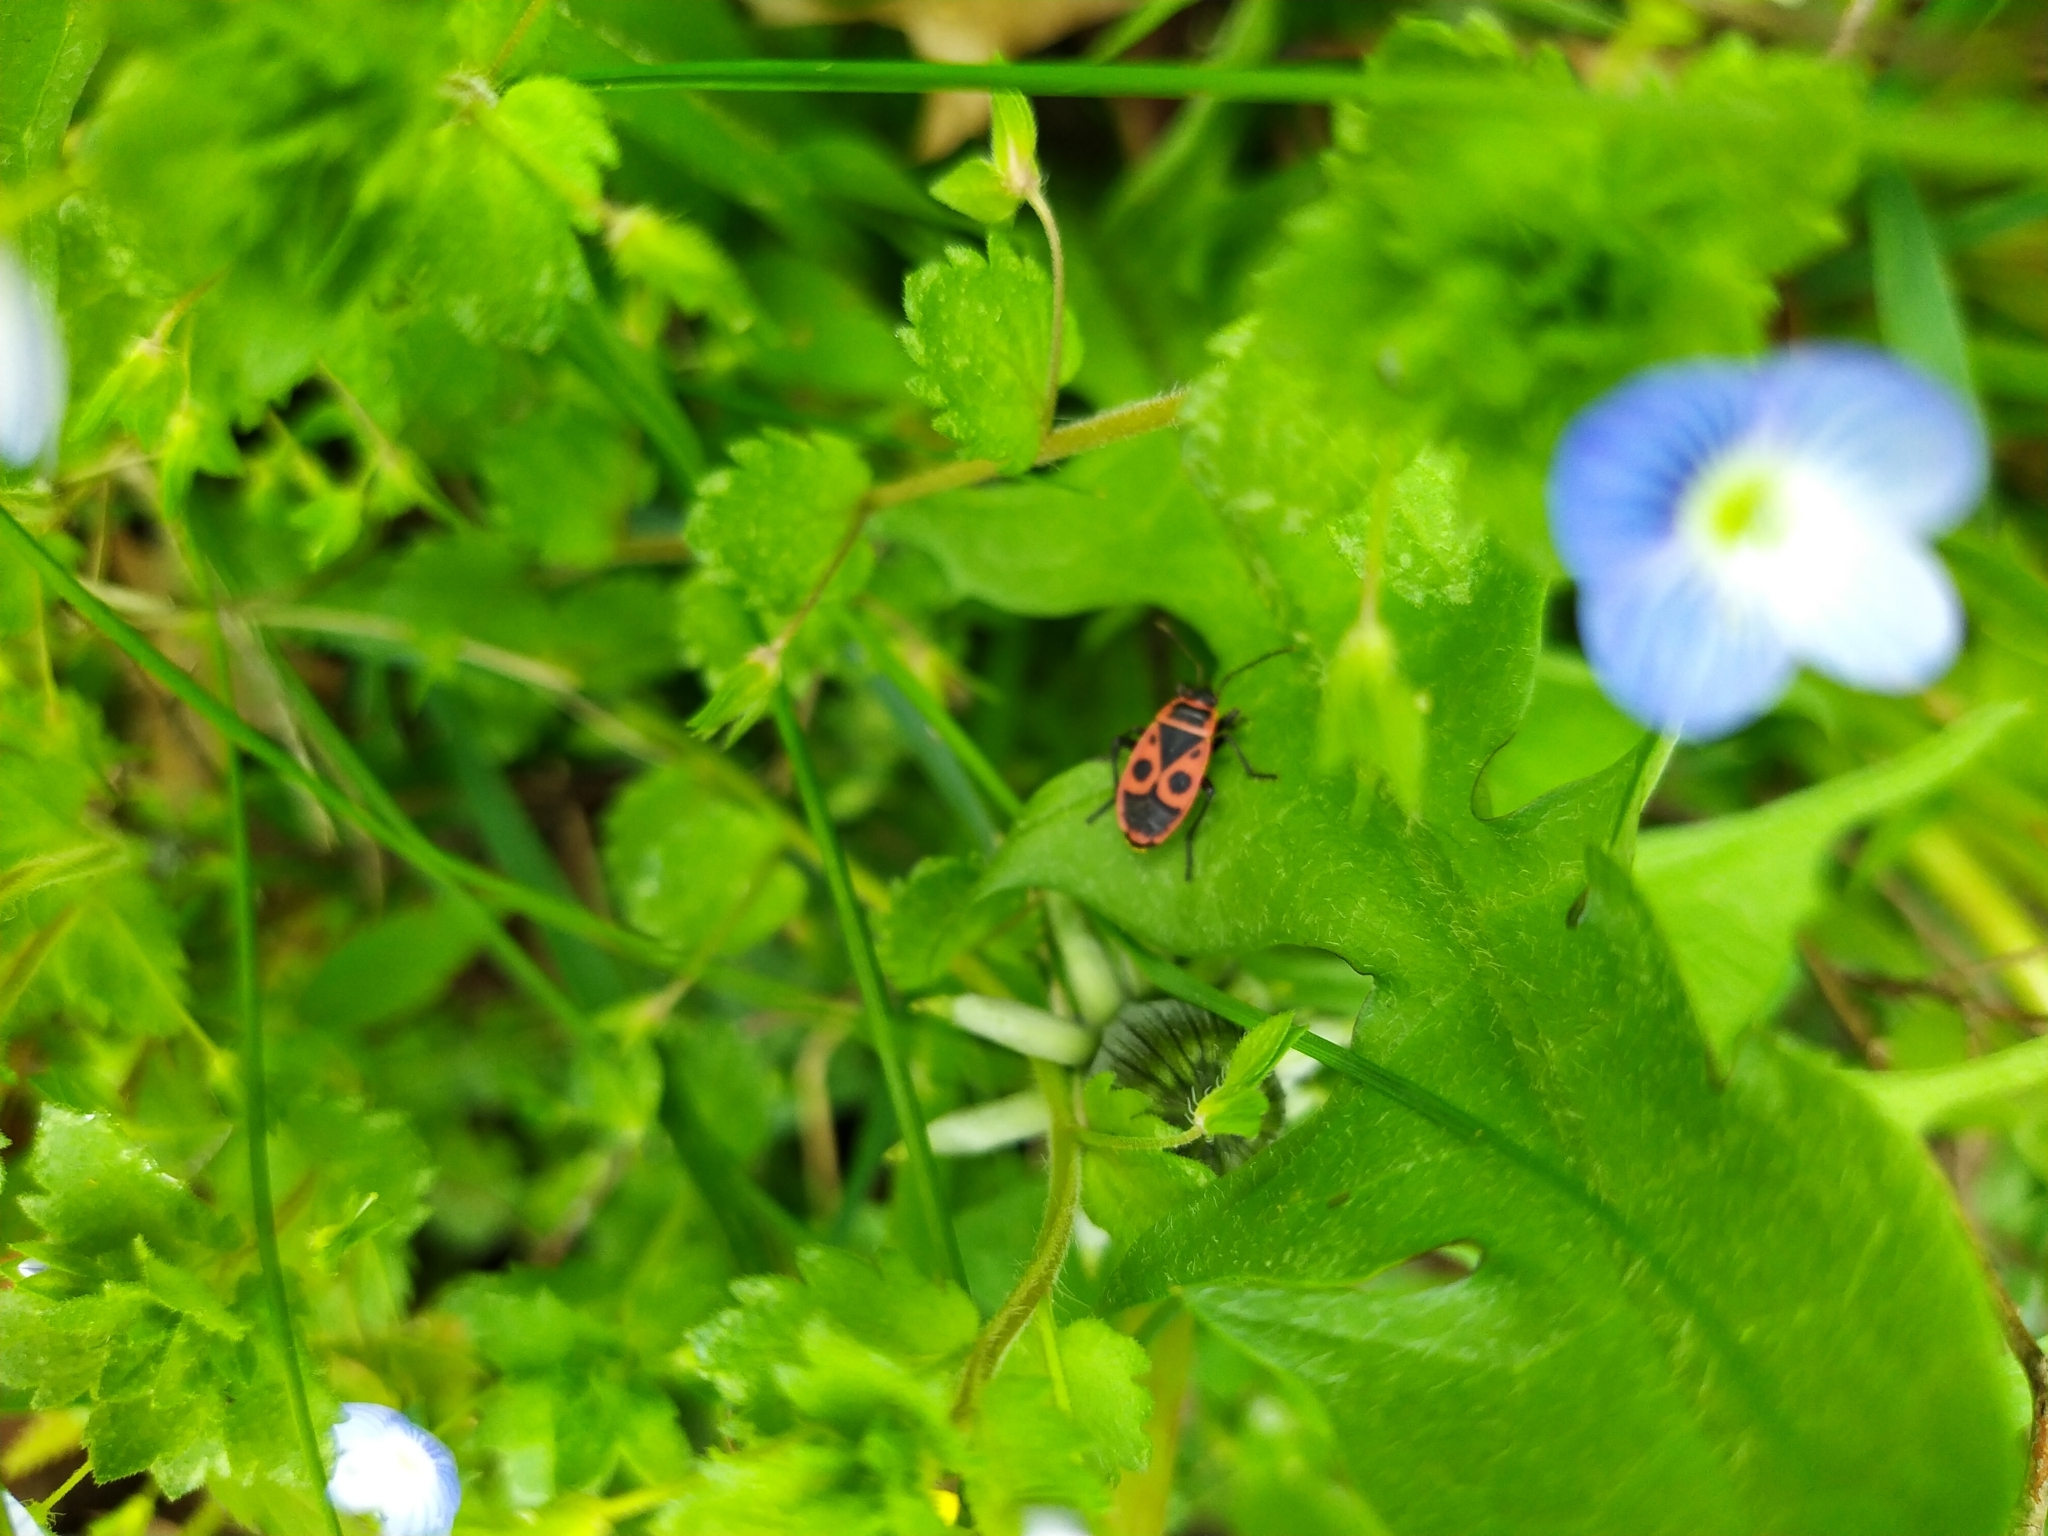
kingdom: Animalia
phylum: Arthropoda
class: Insecta
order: Hemiptera
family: Pyrrhocoridae
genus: Pyrrhocoris
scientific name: Pyrrhocoris apterus
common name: Firebug
